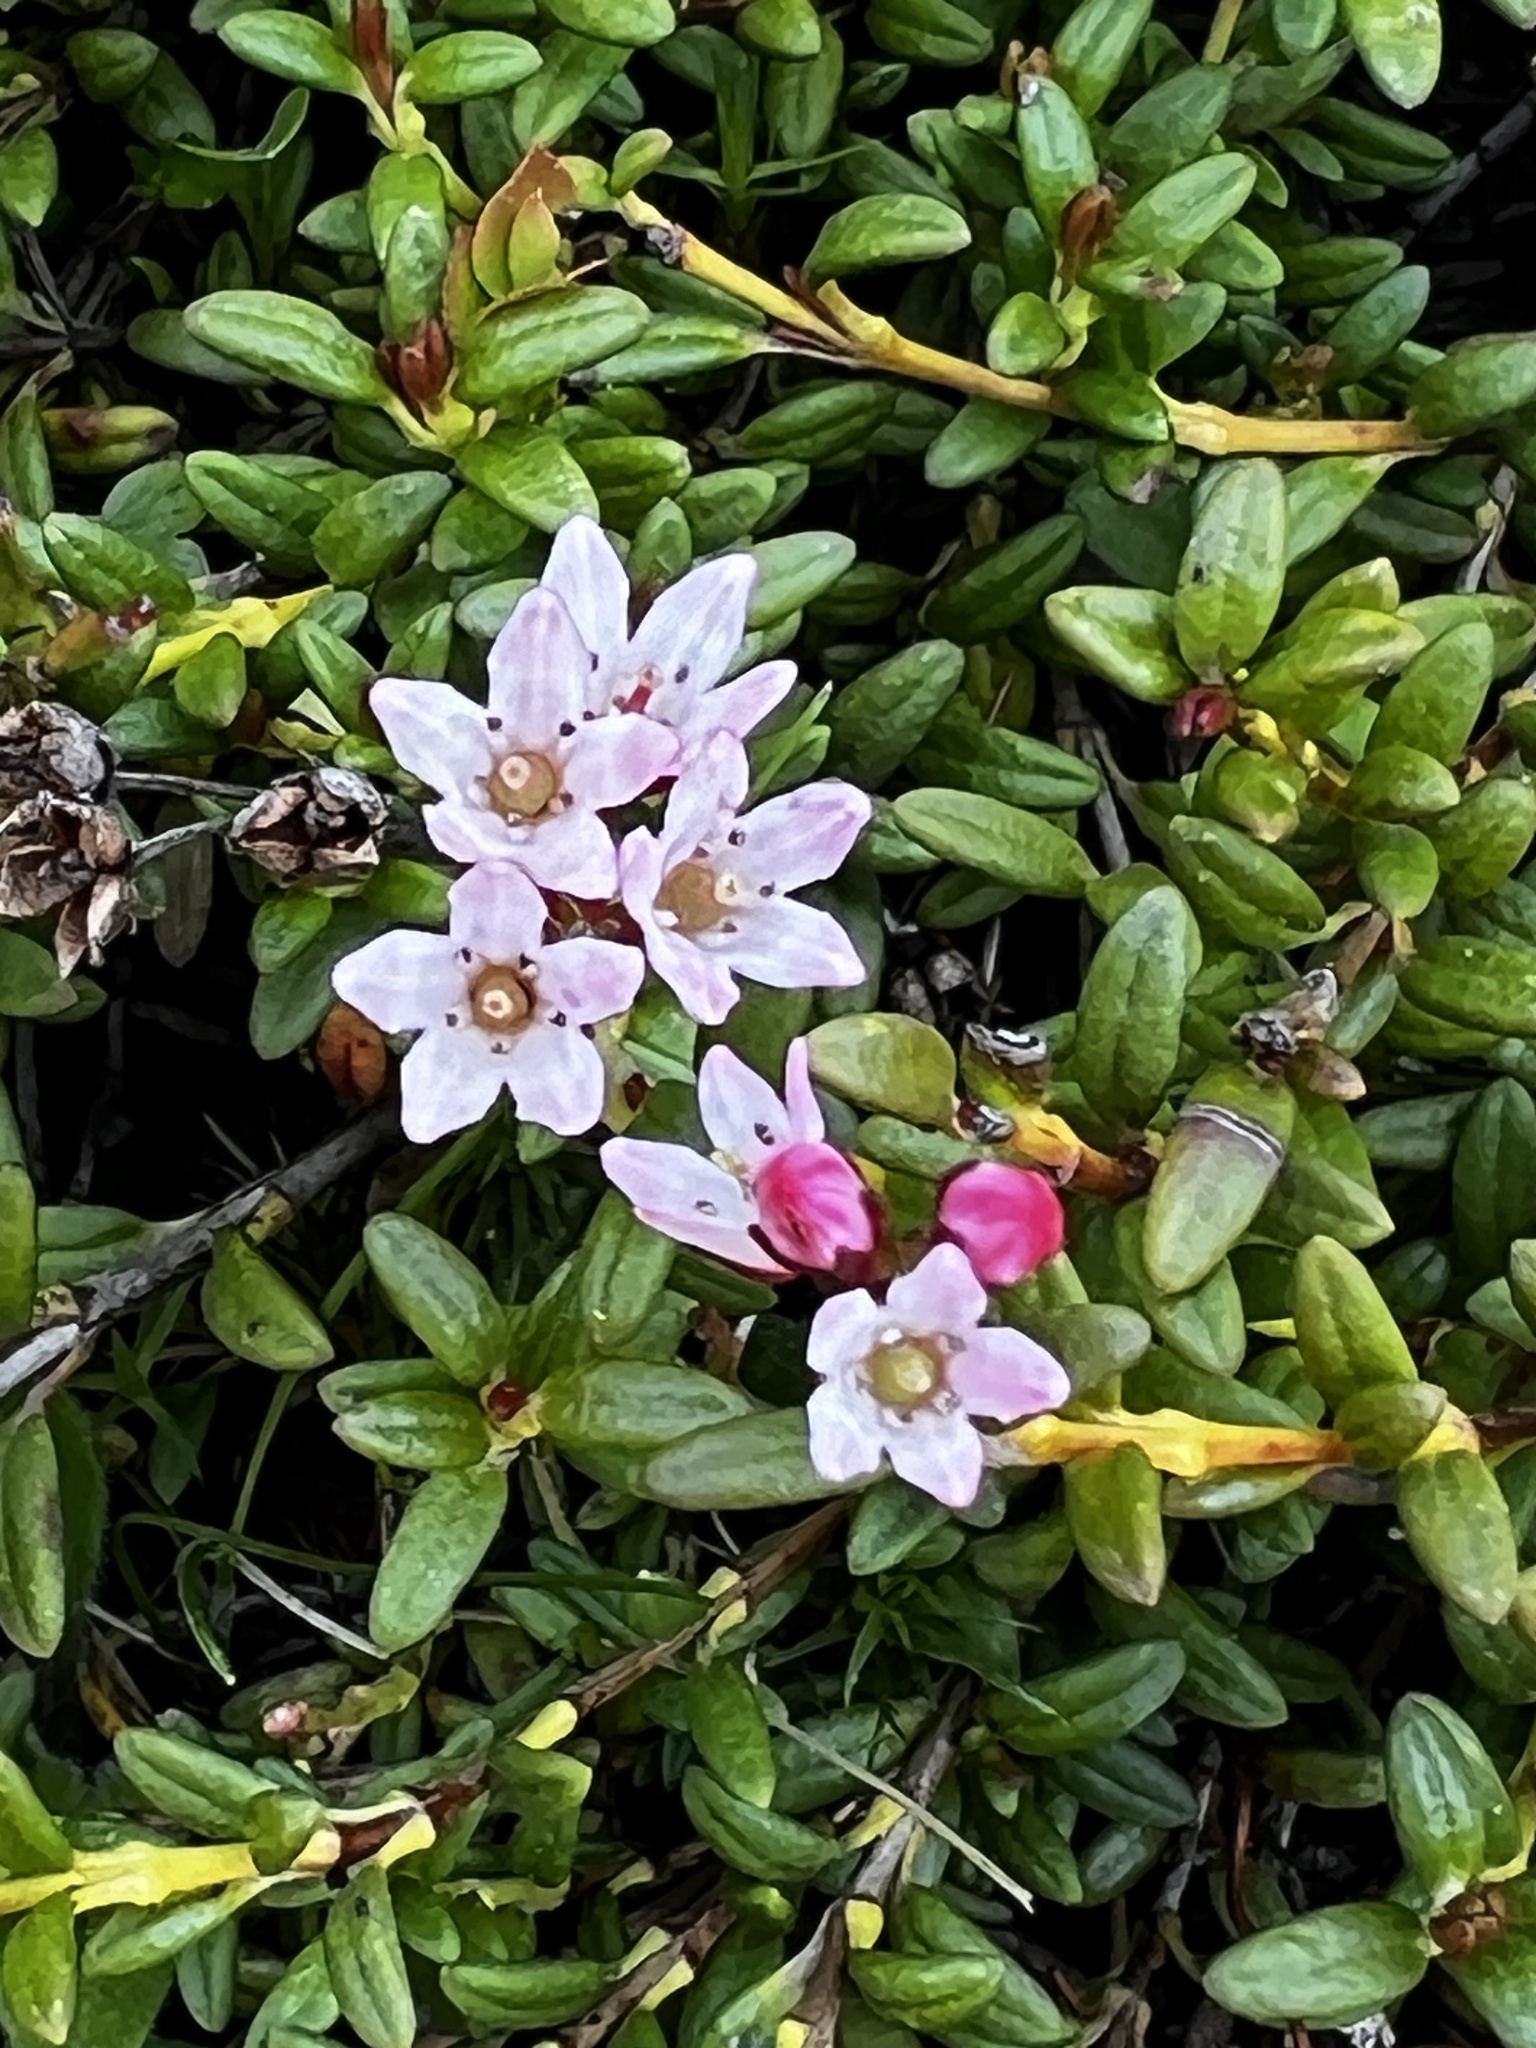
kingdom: Plantae
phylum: Tracheophyta
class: Magnoliopsida
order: Ericales
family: Ericaceae
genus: Kalmia
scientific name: Kalmia procumbens
